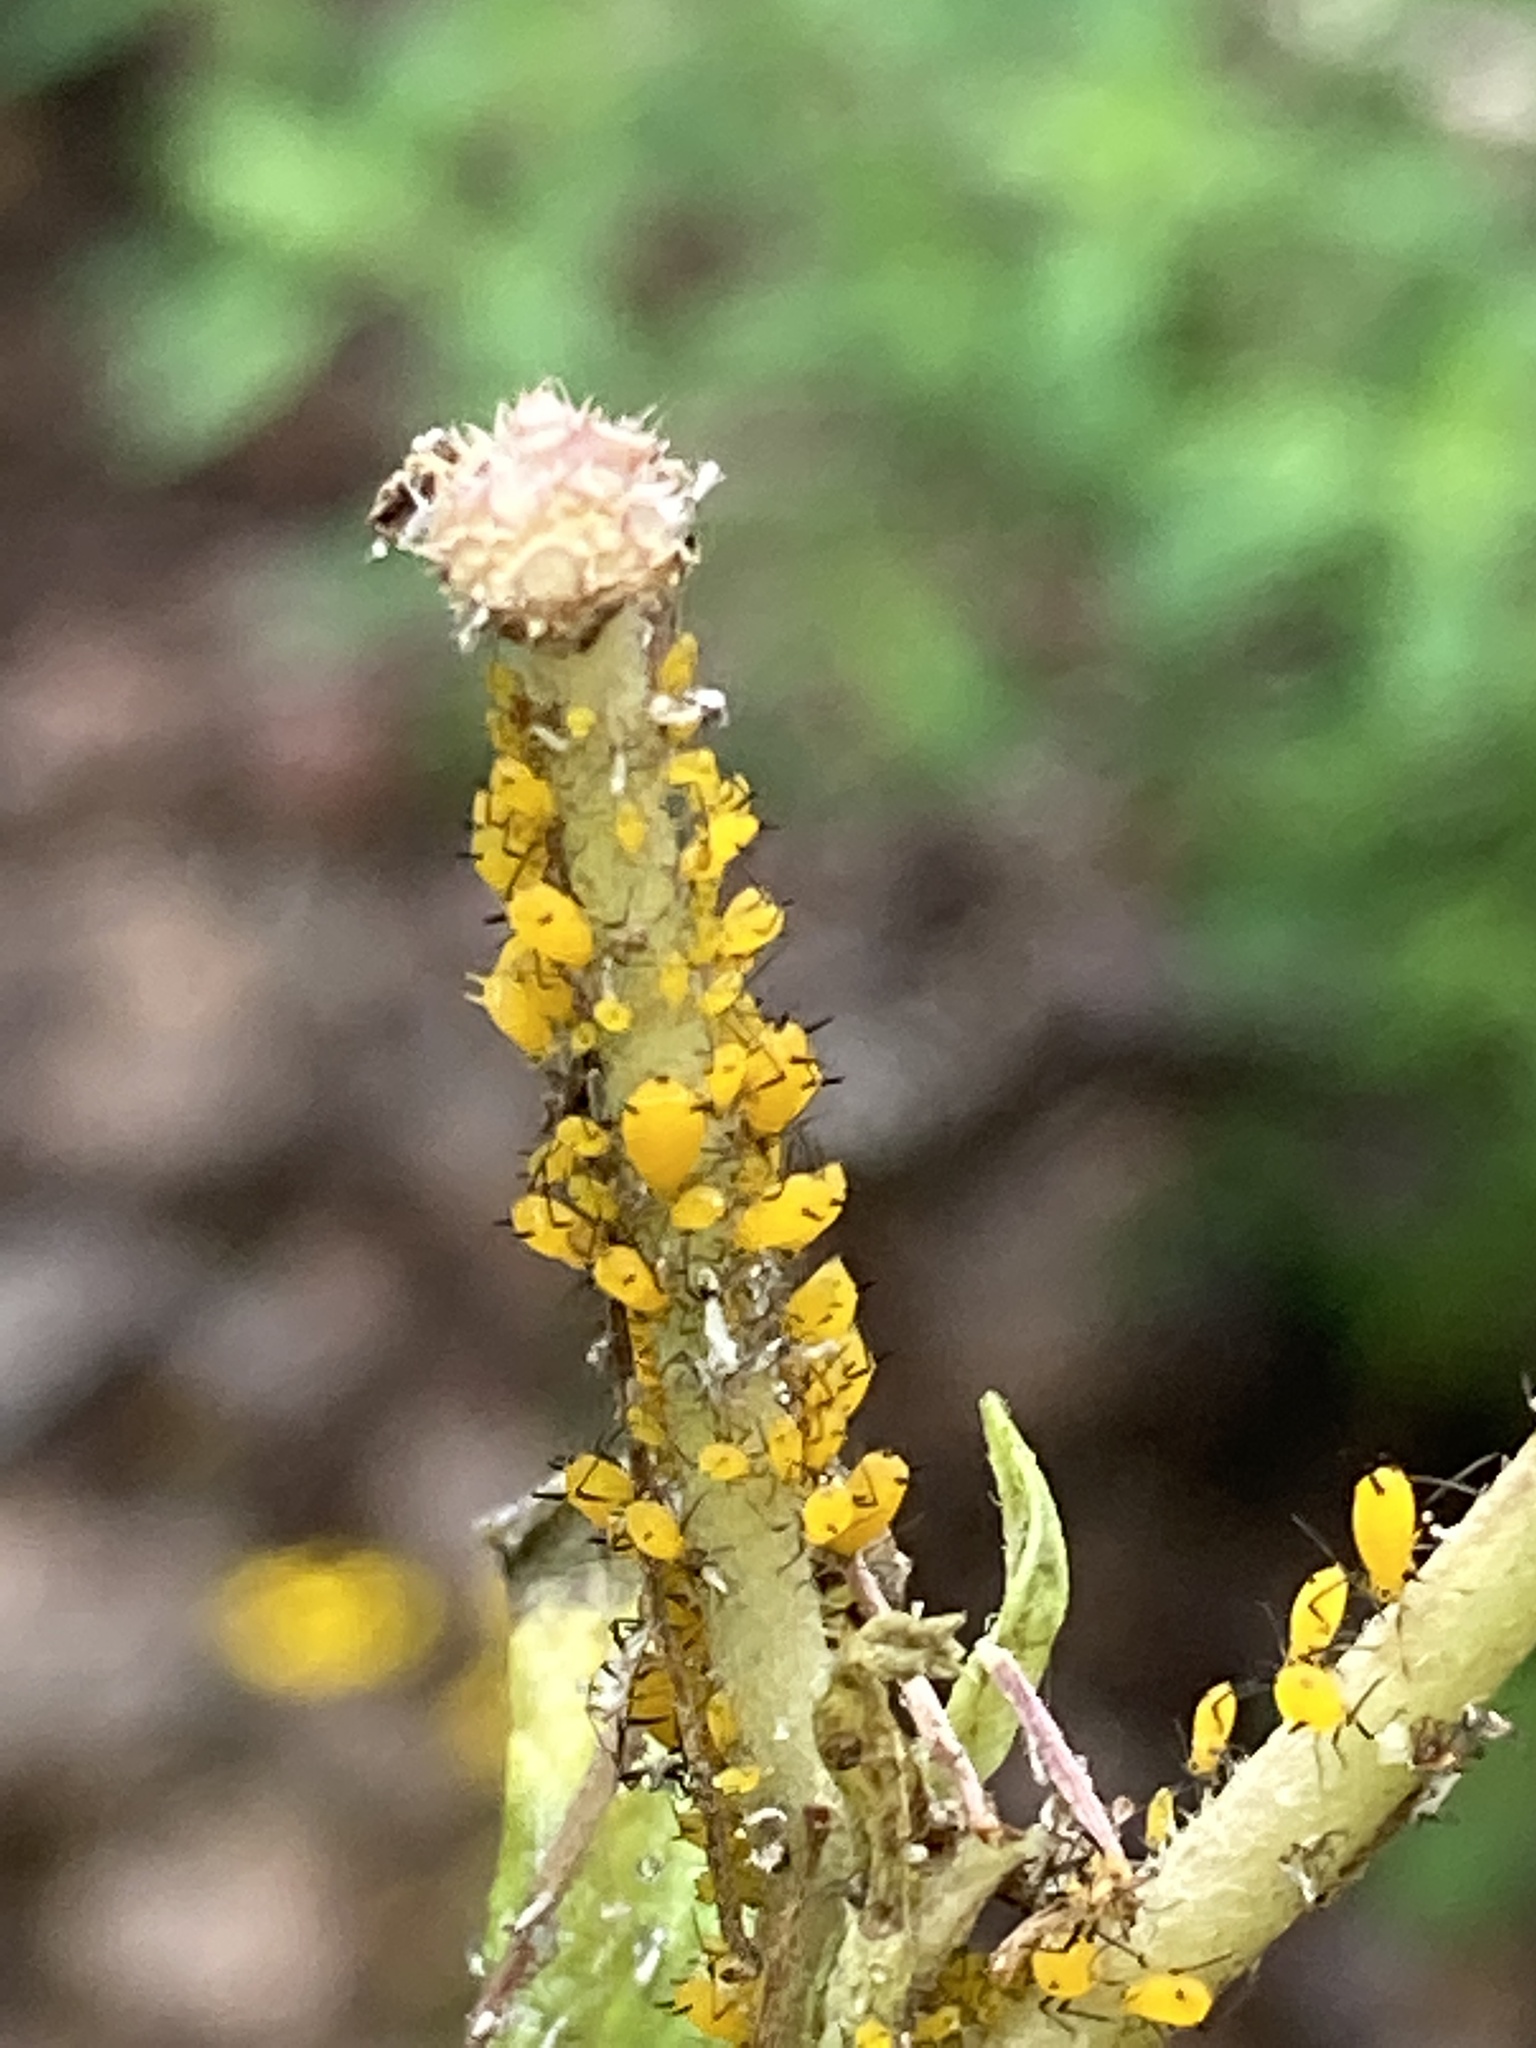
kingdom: Animalia
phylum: Arthropoda
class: Insecta
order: Hemiptera
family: Aphididae
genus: Aphis
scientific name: Aphis nerii
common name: Oleander aphid
